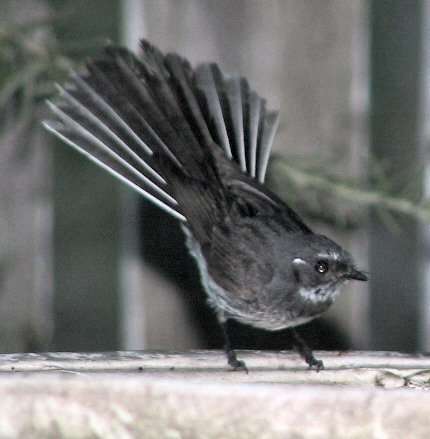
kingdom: Animalia
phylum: Chordata
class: Aves
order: Passeriformes
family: Rhipiduridae
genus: Rhipidura
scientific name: Rhipidura albiscapa
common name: Grey fantail
